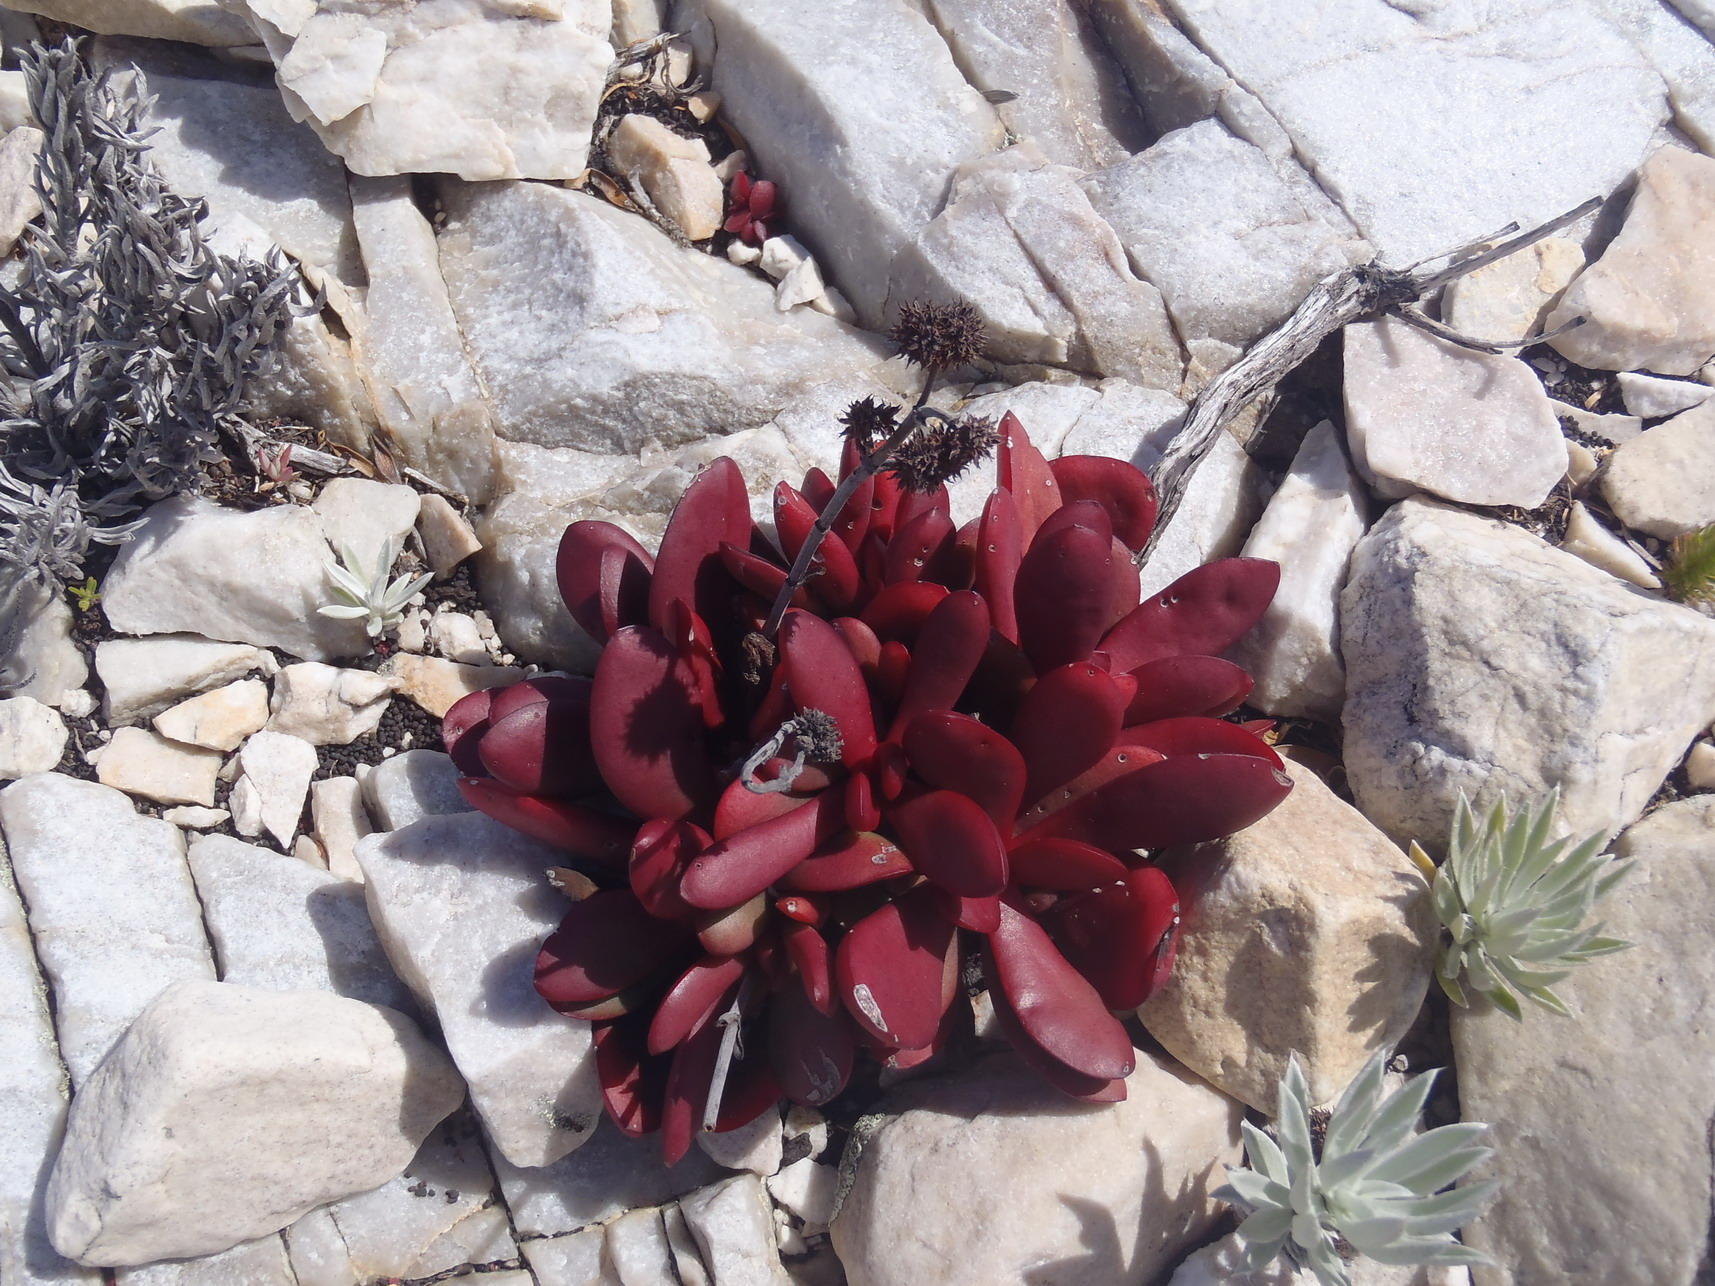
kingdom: Plantae
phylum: Tracheophyta
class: Magnoliopsida
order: Saxifragales
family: Crassulaceae
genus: Crassula
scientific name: Crassula atropurpurea
